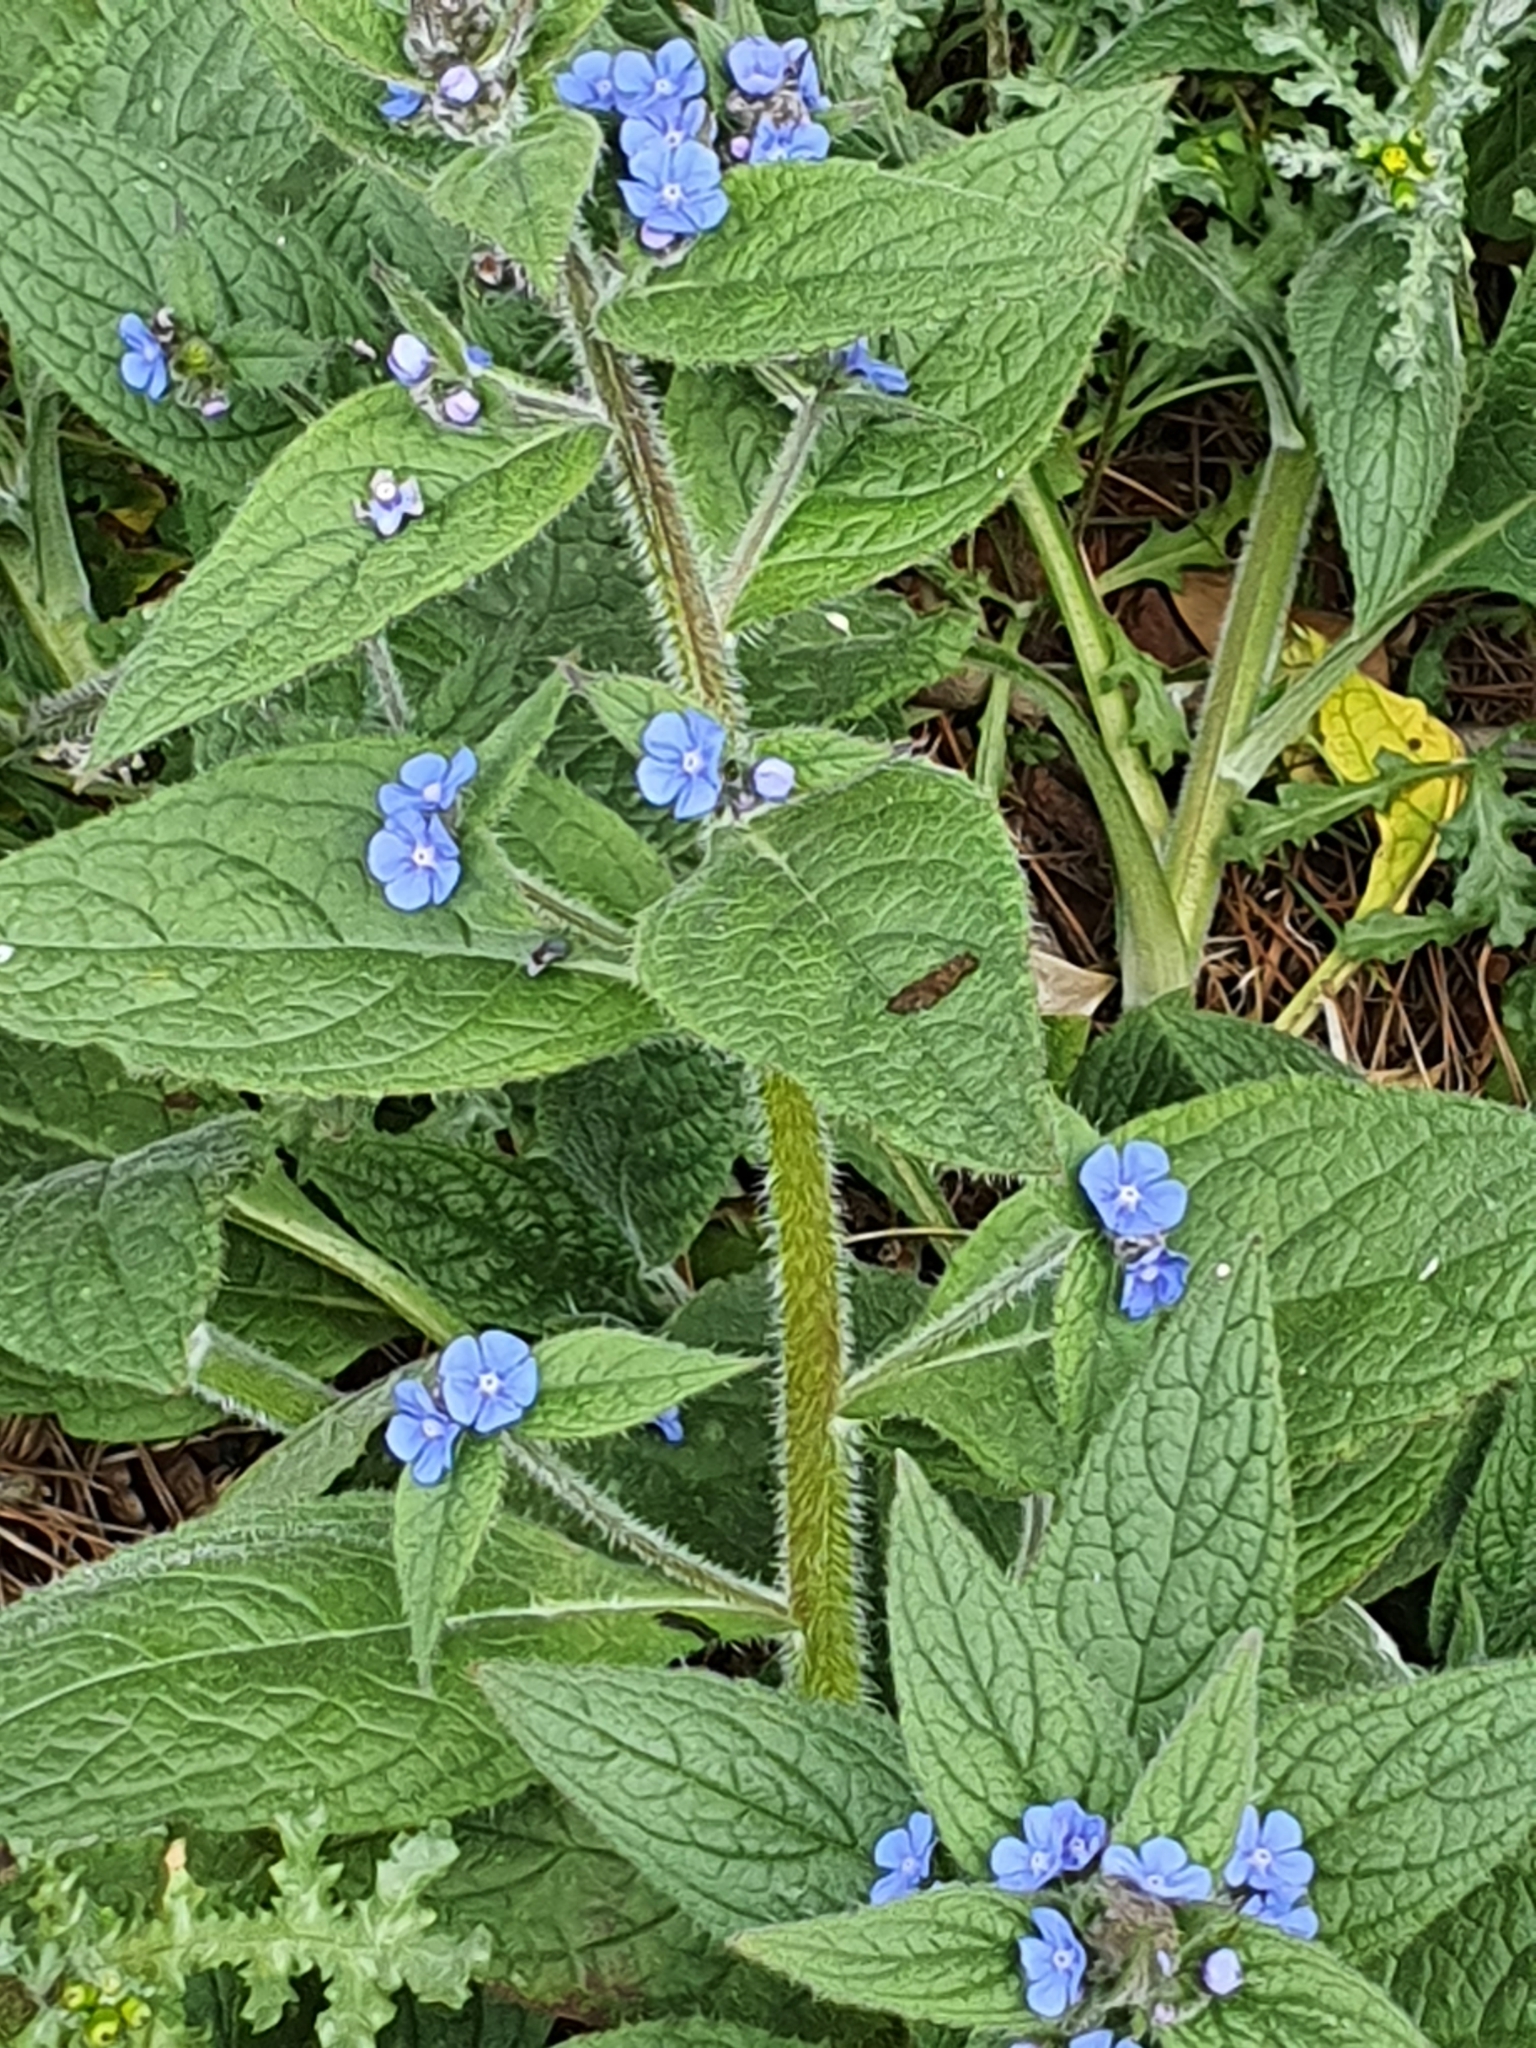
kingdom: Plantae
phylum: Tracheophyta
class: Magnoliopsida
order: Boraginales
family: Boraginaceae
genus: Pentaglottis
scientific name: Pentaglottis sempervirens
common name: Green alkanet
